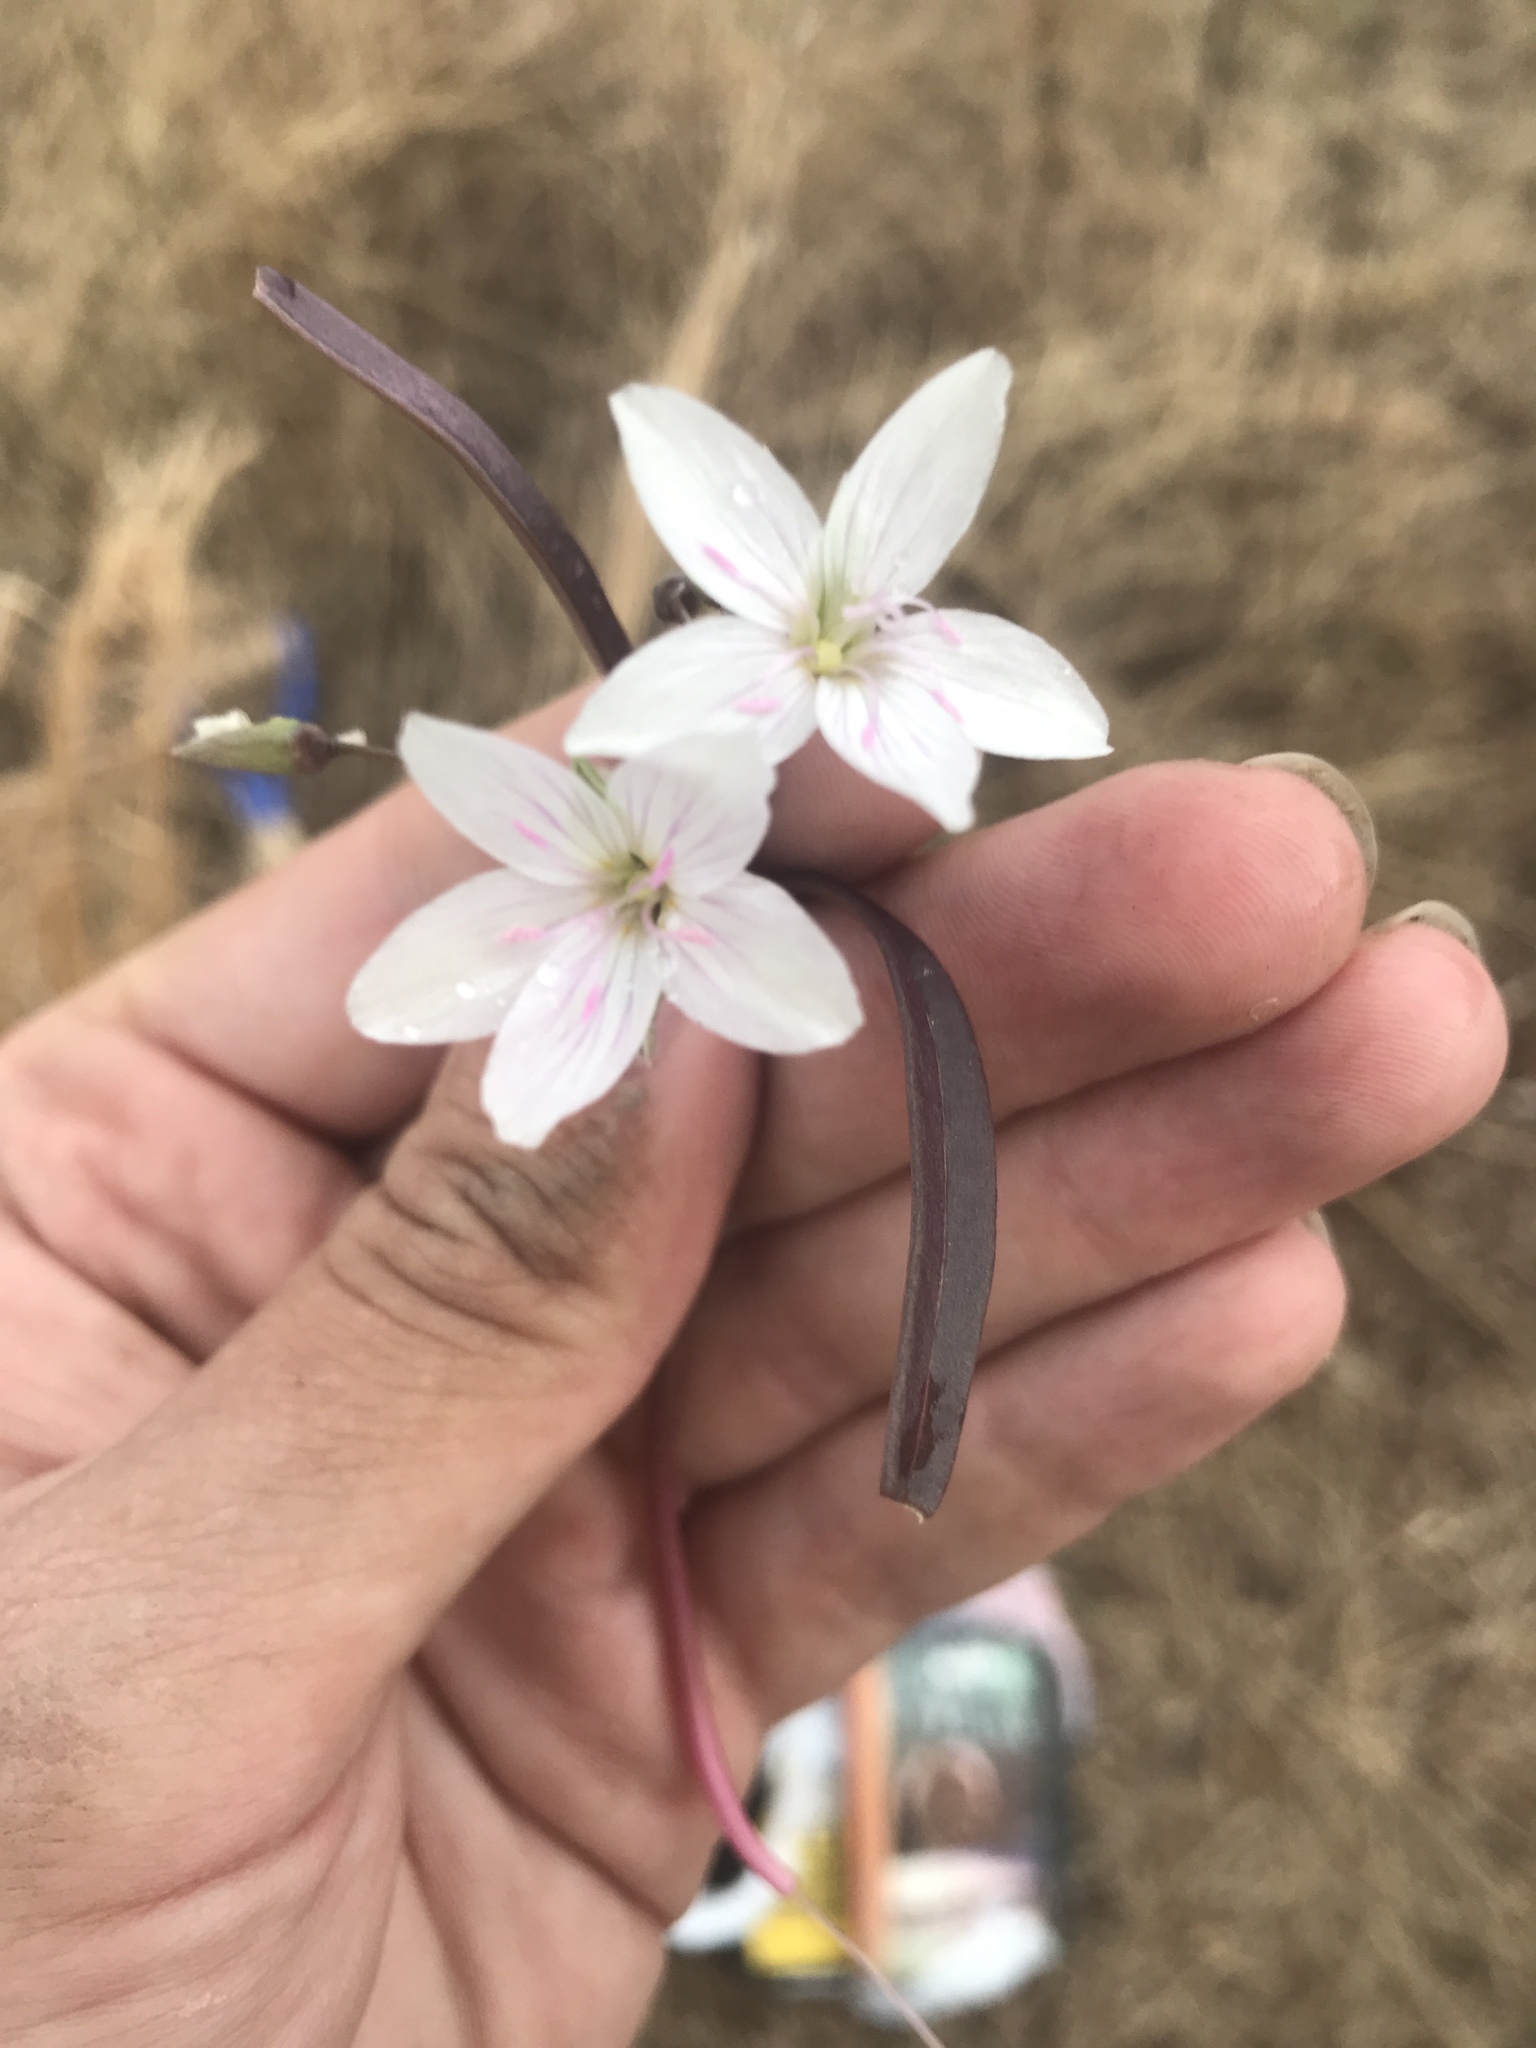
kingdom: Plantae
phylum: Tracheophyta
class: Magnoliopsida
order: Caryophyllales
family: Montiaceae
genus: Claytonia
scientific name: Claytonia virginica
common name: Virginia springbeauty
